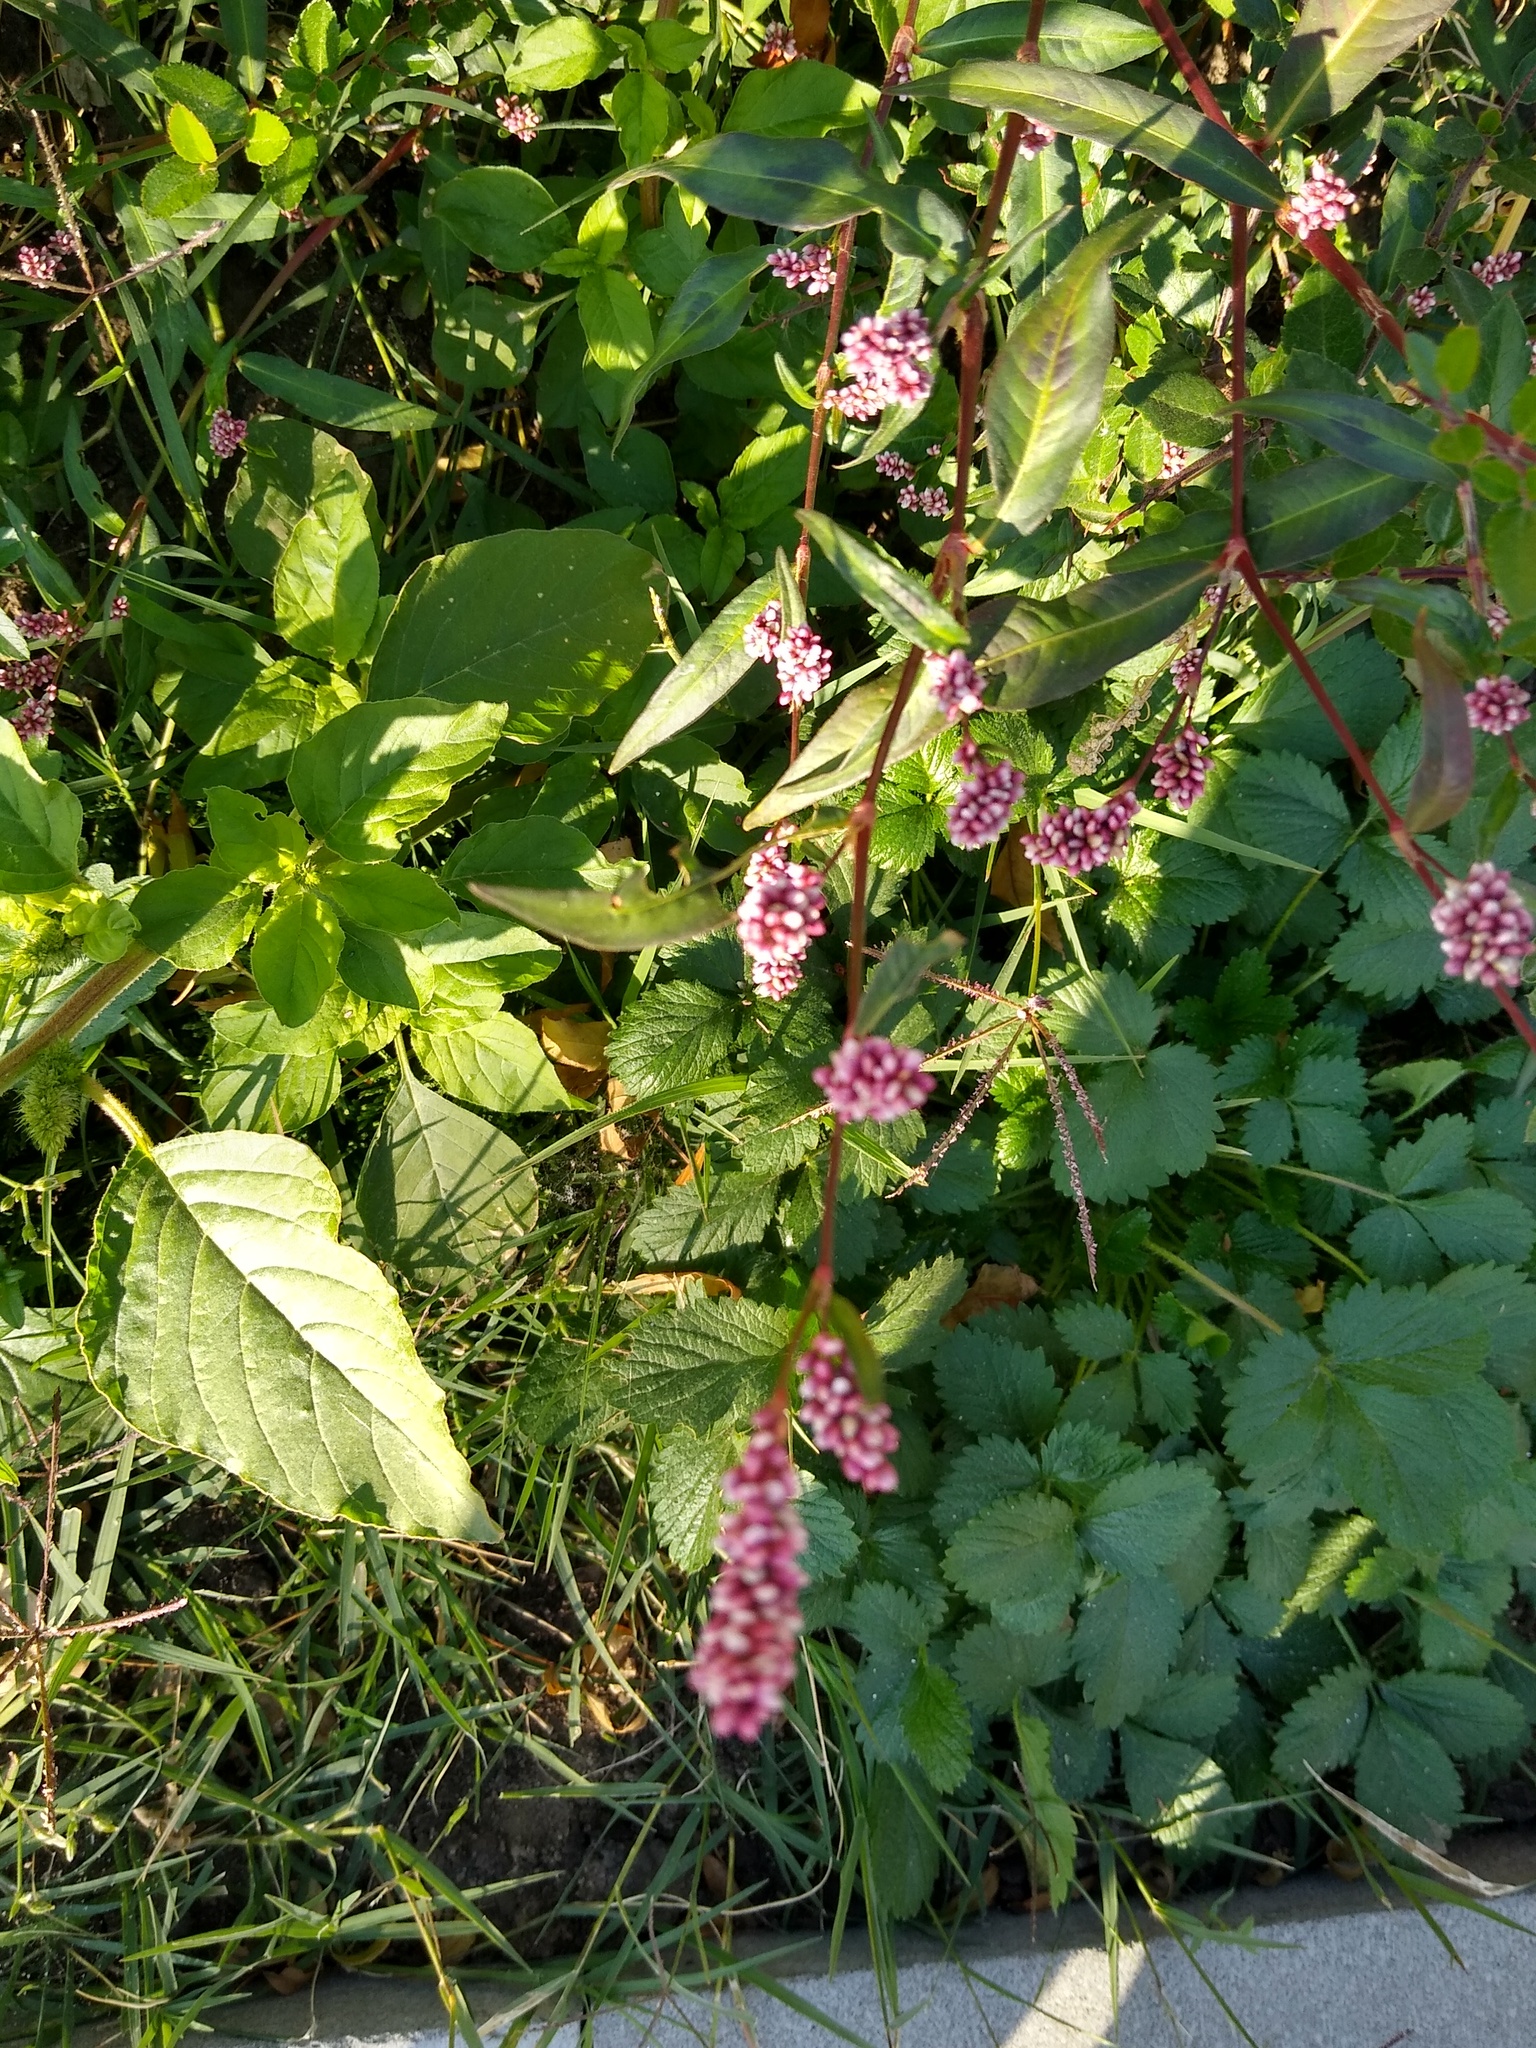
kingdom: Plantae
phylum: Tracheophyta
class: Magnoliopsida
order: Caryophyllales
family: Polygonaceae
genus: Persicaria
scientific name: Persicaria maculosa
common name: Redshank
